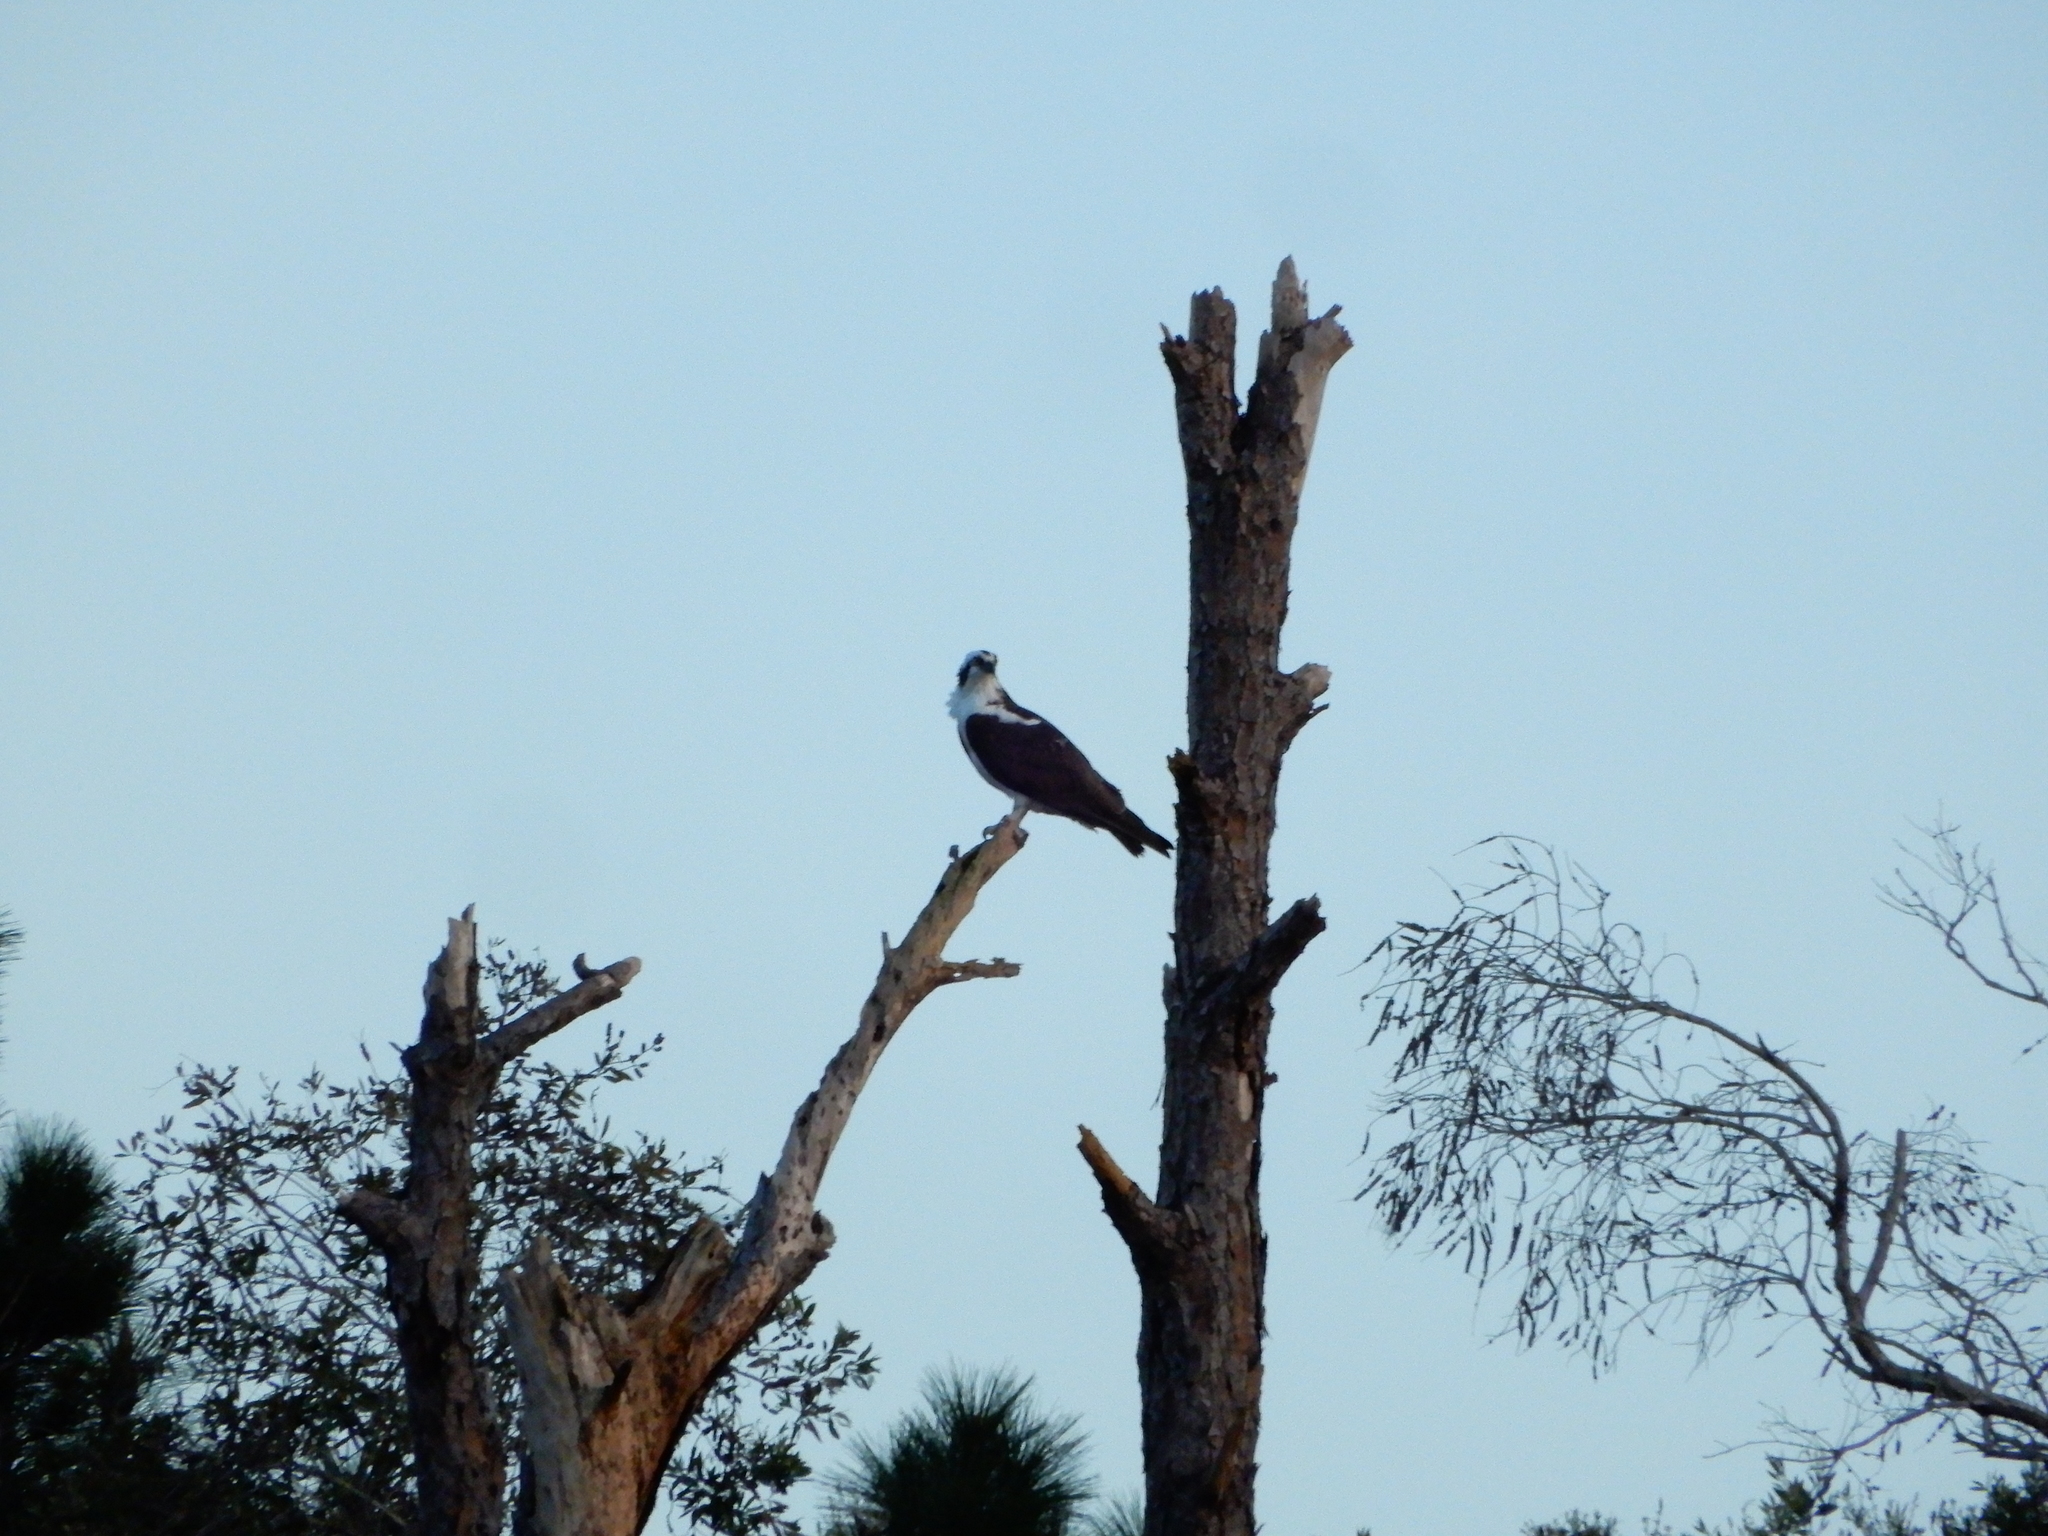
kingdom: Animalia
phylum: Chordata
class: Aves
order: Accipitriformes
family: Pandionidae
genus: Pandion
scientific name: Pandion haliaetus
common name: Osprey
